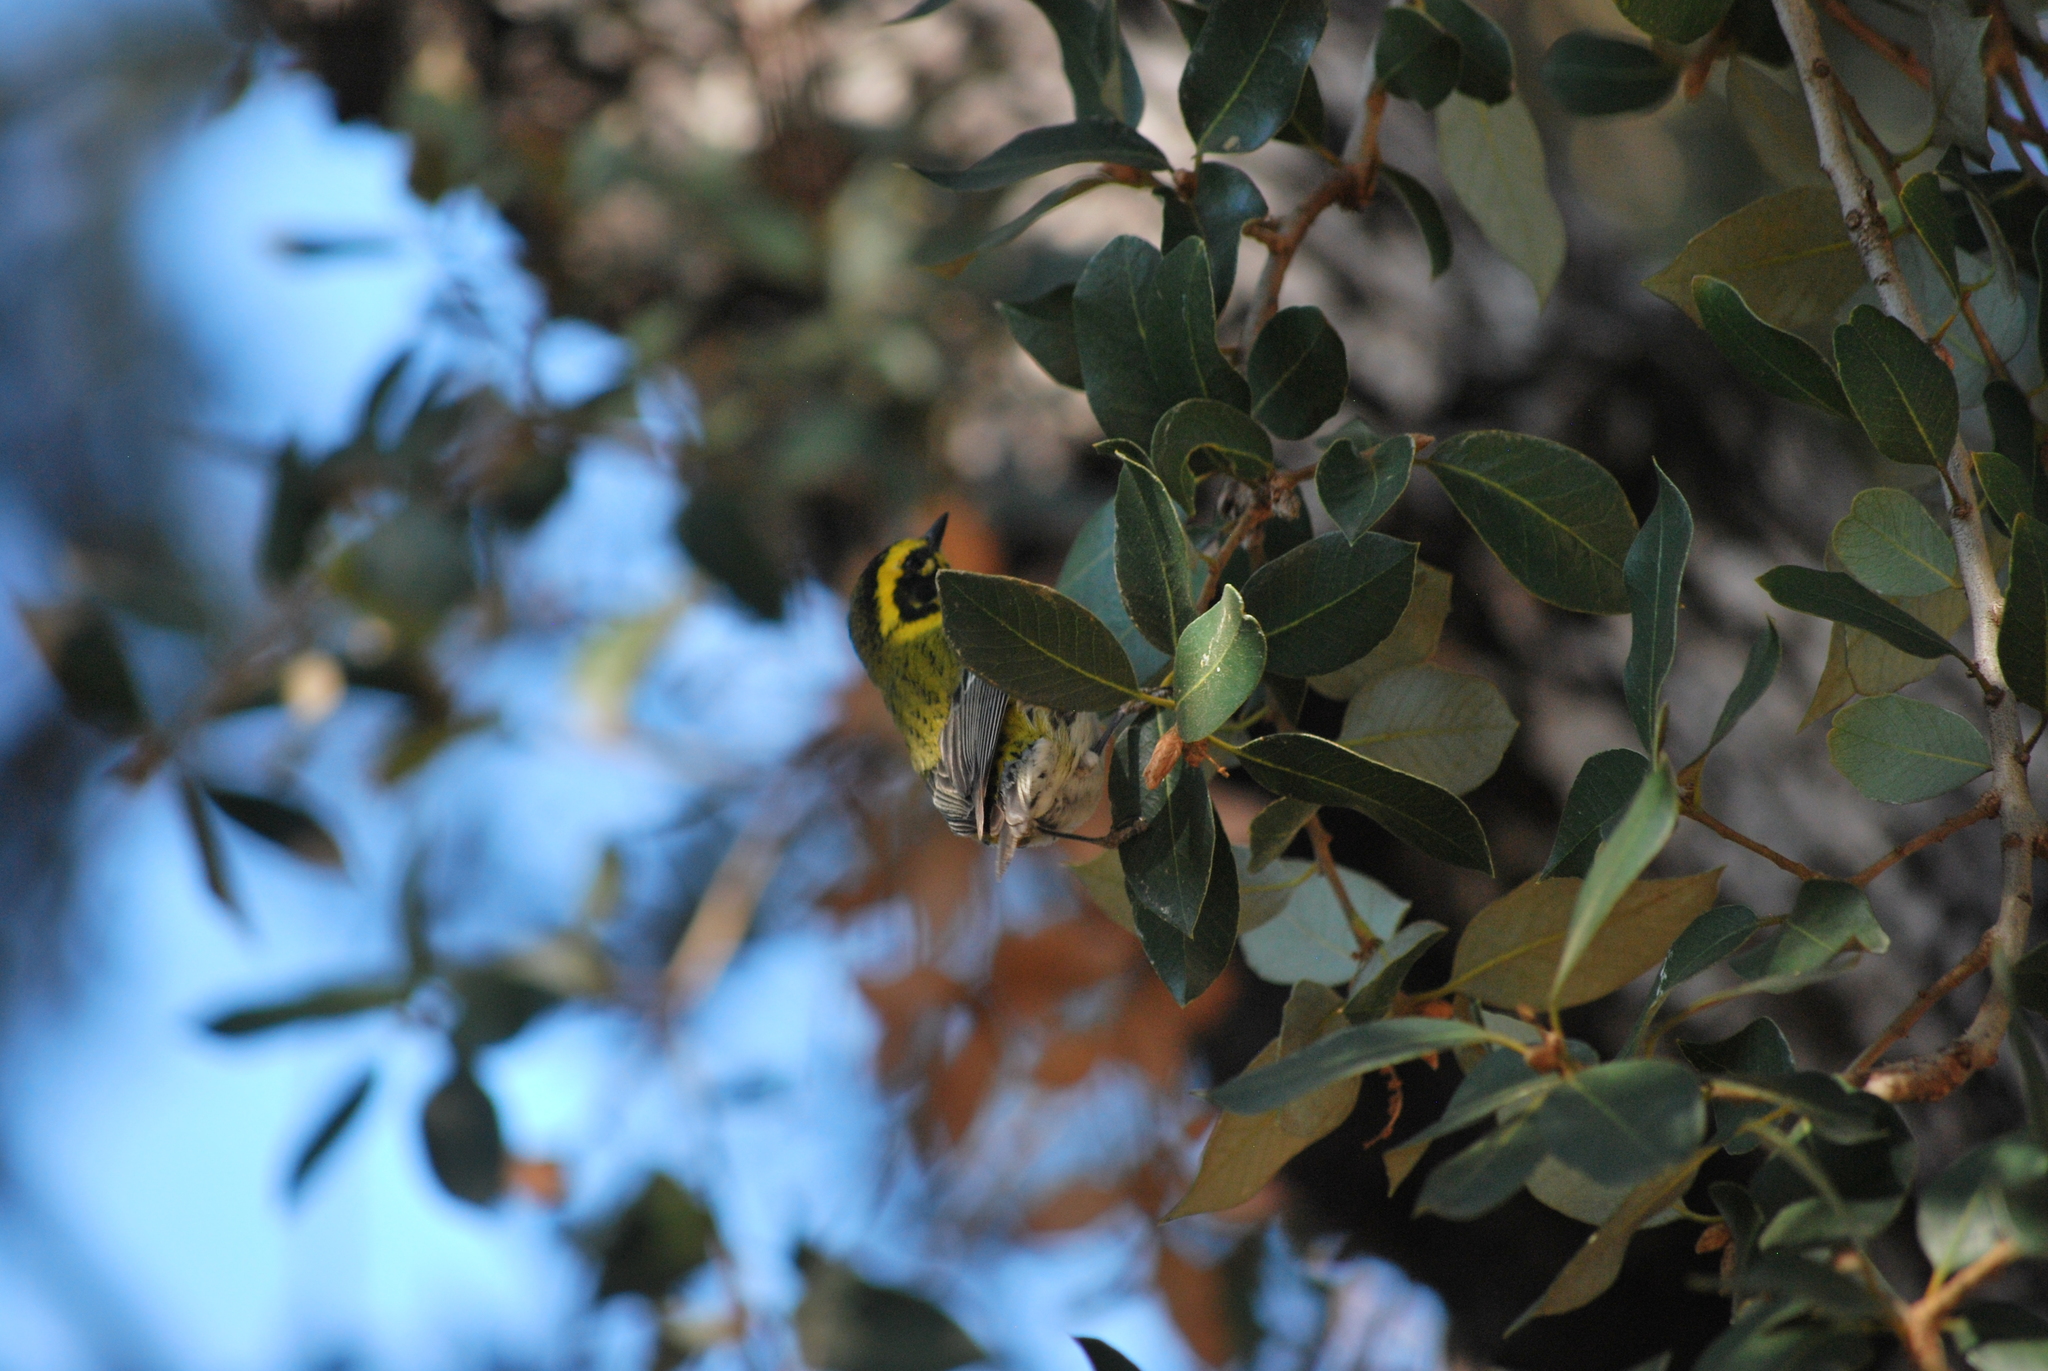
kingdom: Animalia
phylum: Chordata
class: Aves
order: Passeriformes
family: Parulidae
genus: Setophaga
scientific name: Setophaga townsendi
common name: Townsend's warbler
